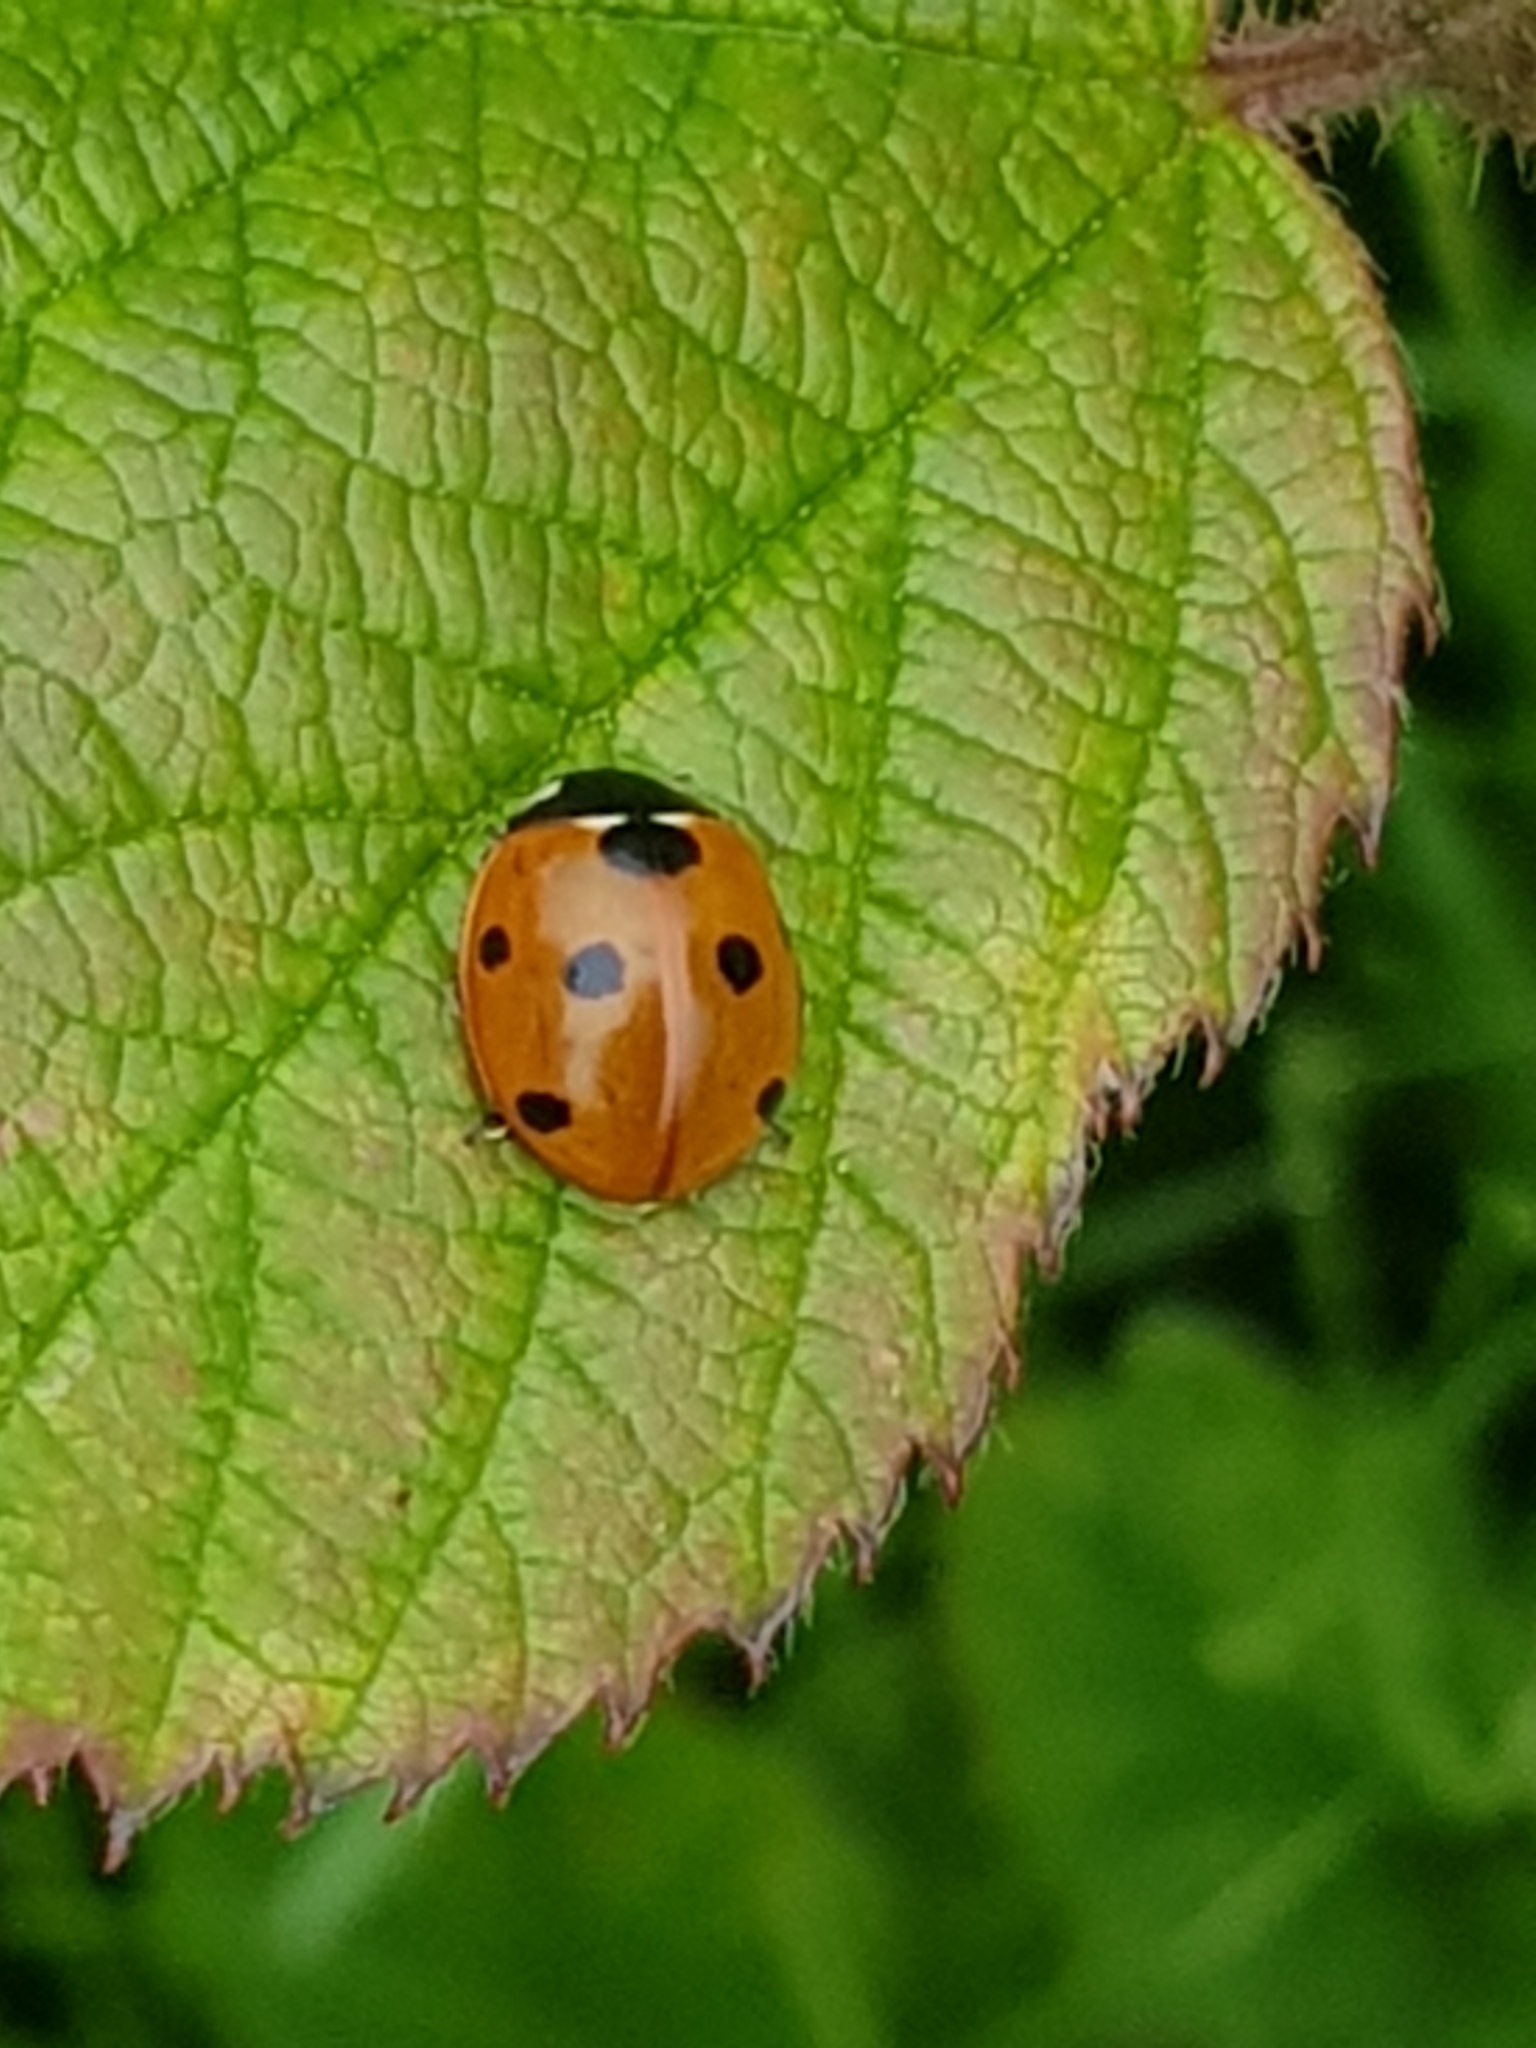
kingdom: Animalia
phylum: Arthropoda
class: Insecta
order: Coleoptera
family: Coccinellidae
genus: Coccinella
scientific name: Coccinella septempunctata
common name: Sevenspotted lady beetle
